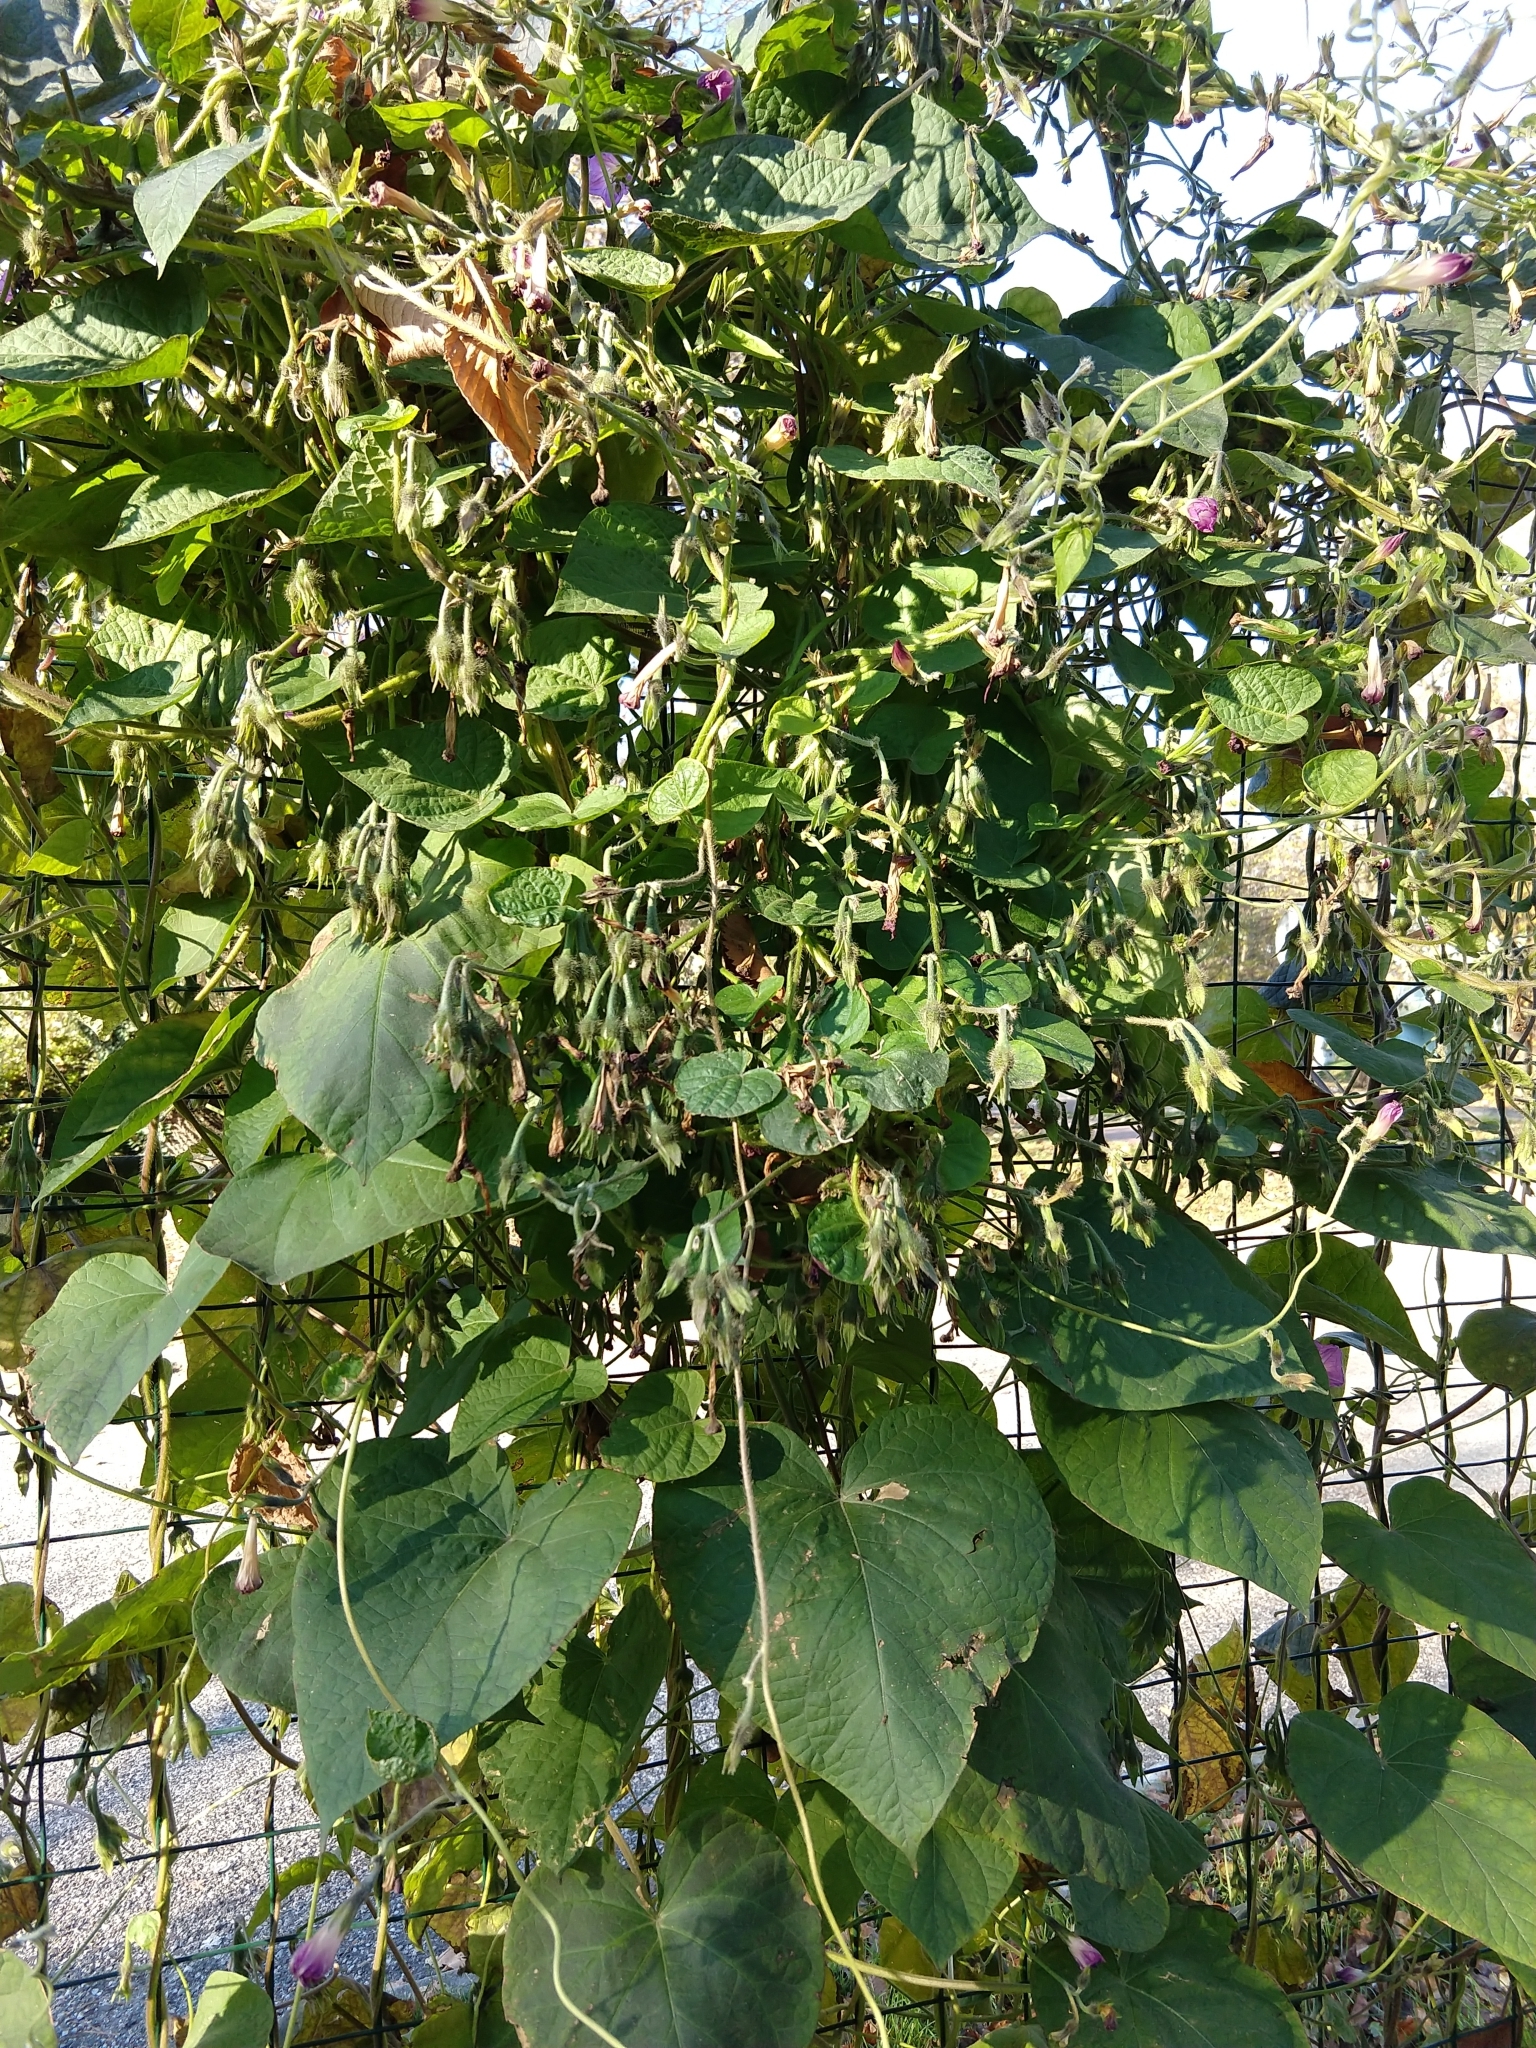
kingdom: Plantae
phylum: Tracheophyta
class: Magnoliopsida
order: Solanales
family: Convolvulaceae
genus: Ipomoea
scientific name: Ipomoea purpurea
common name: Common morning-glory
